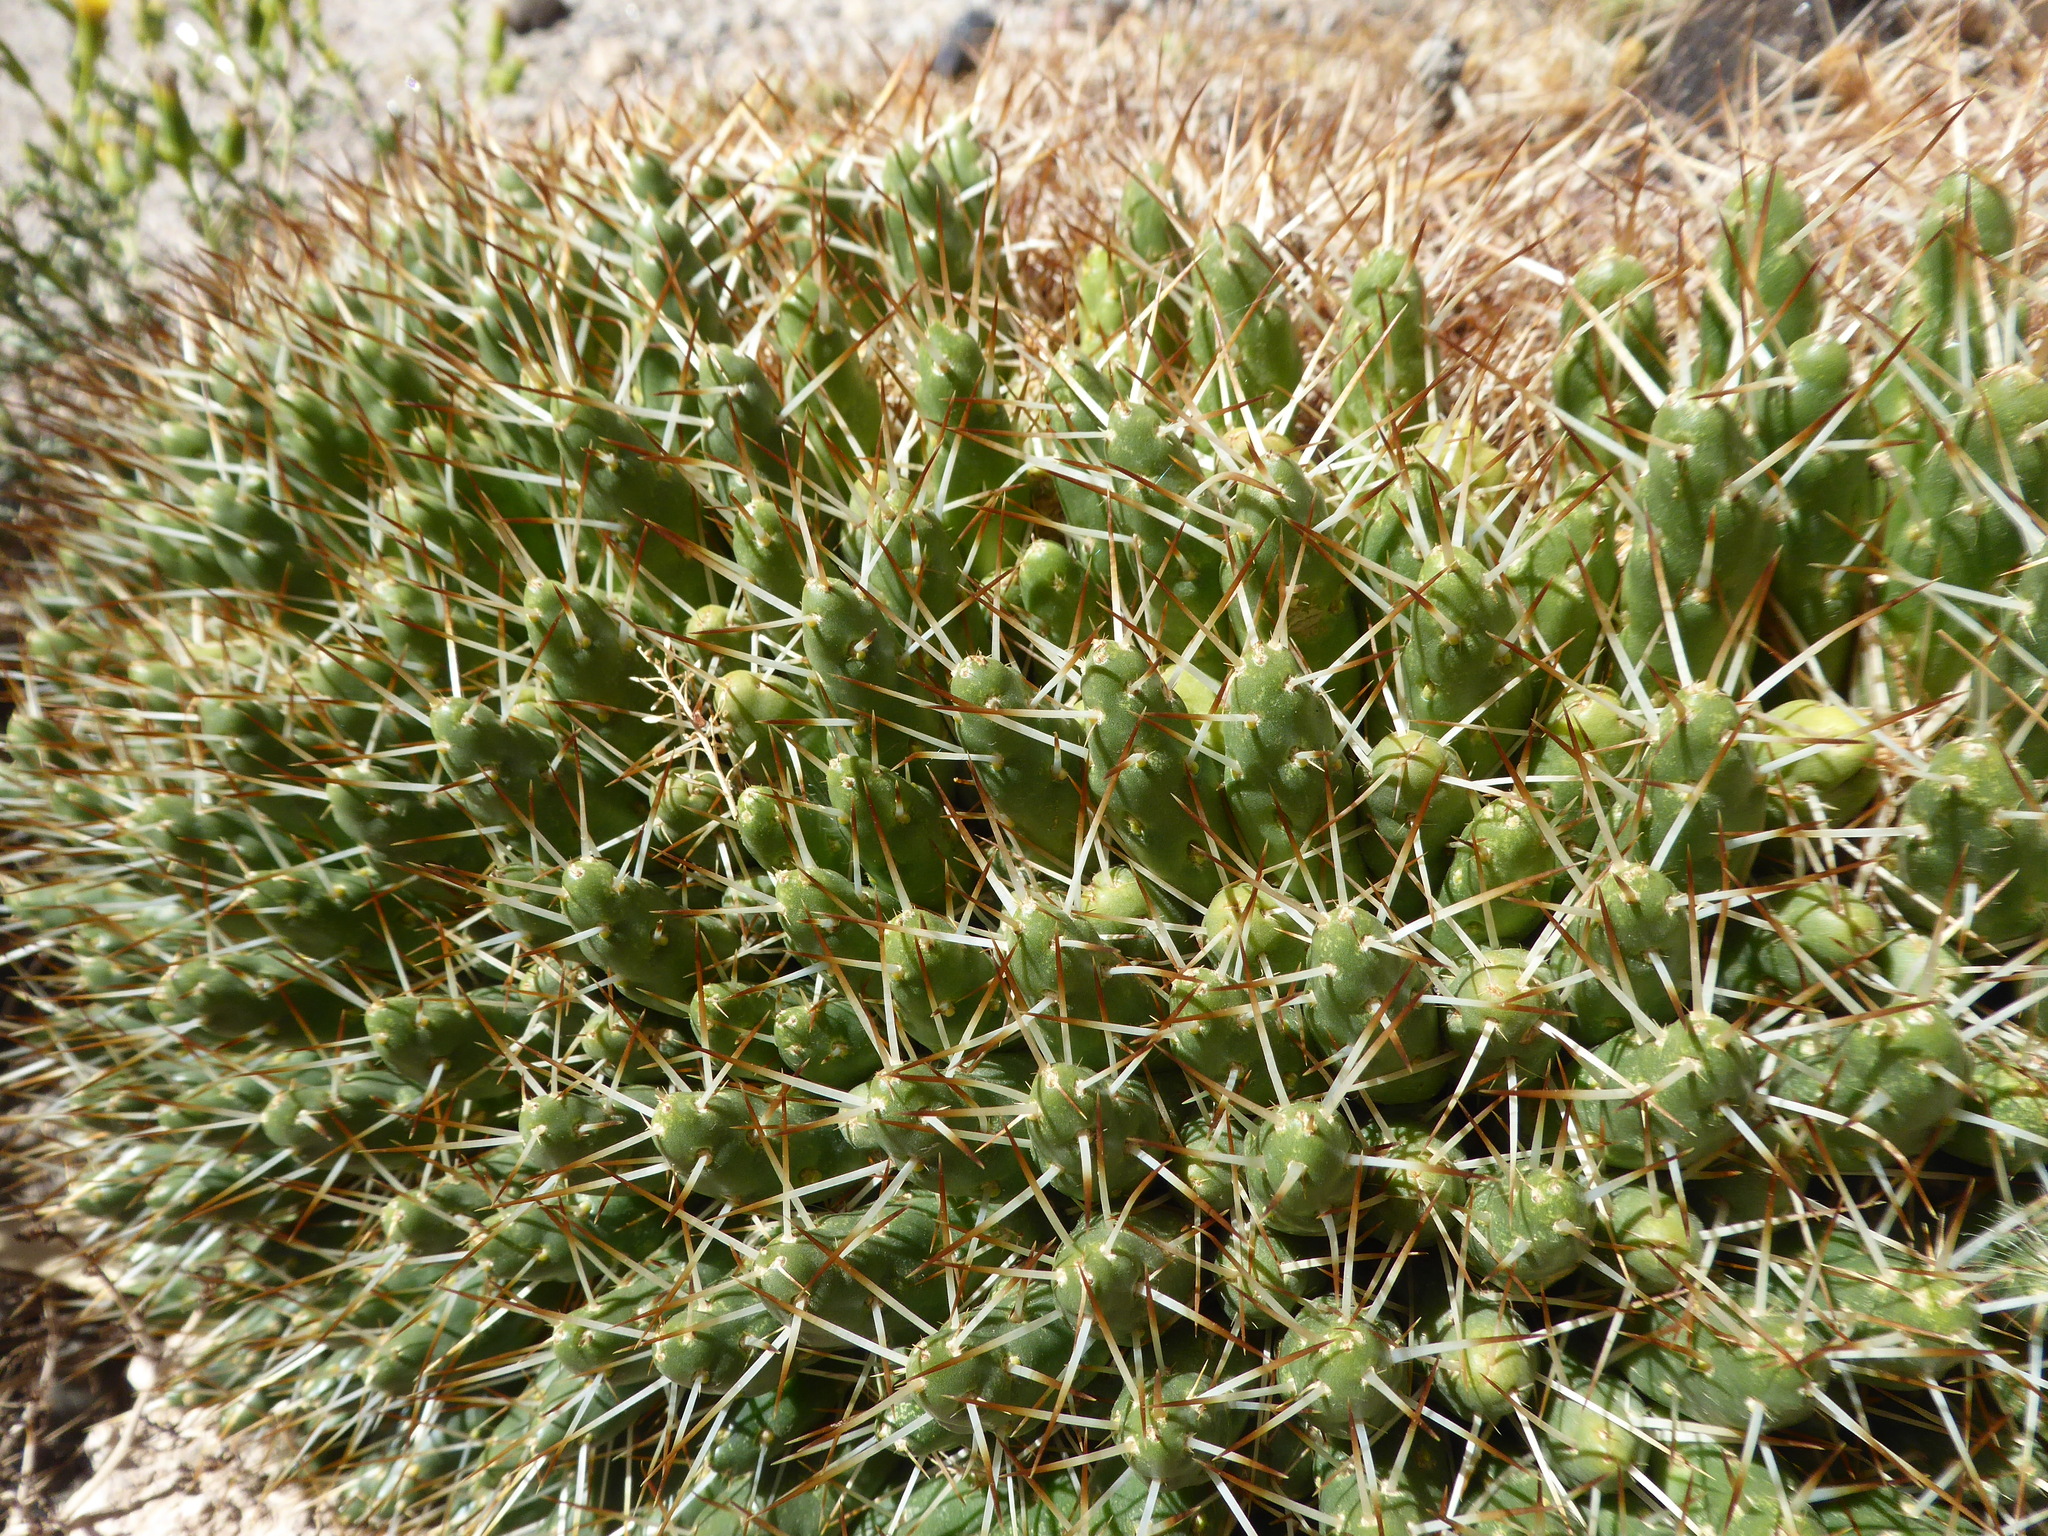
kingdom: Plantae
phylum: Tracheophyta
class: Magnoliopsida
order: Caryophyllales
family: Cactaceae
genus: Maihueniopsis
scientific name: Maihueniopsis glomerata
